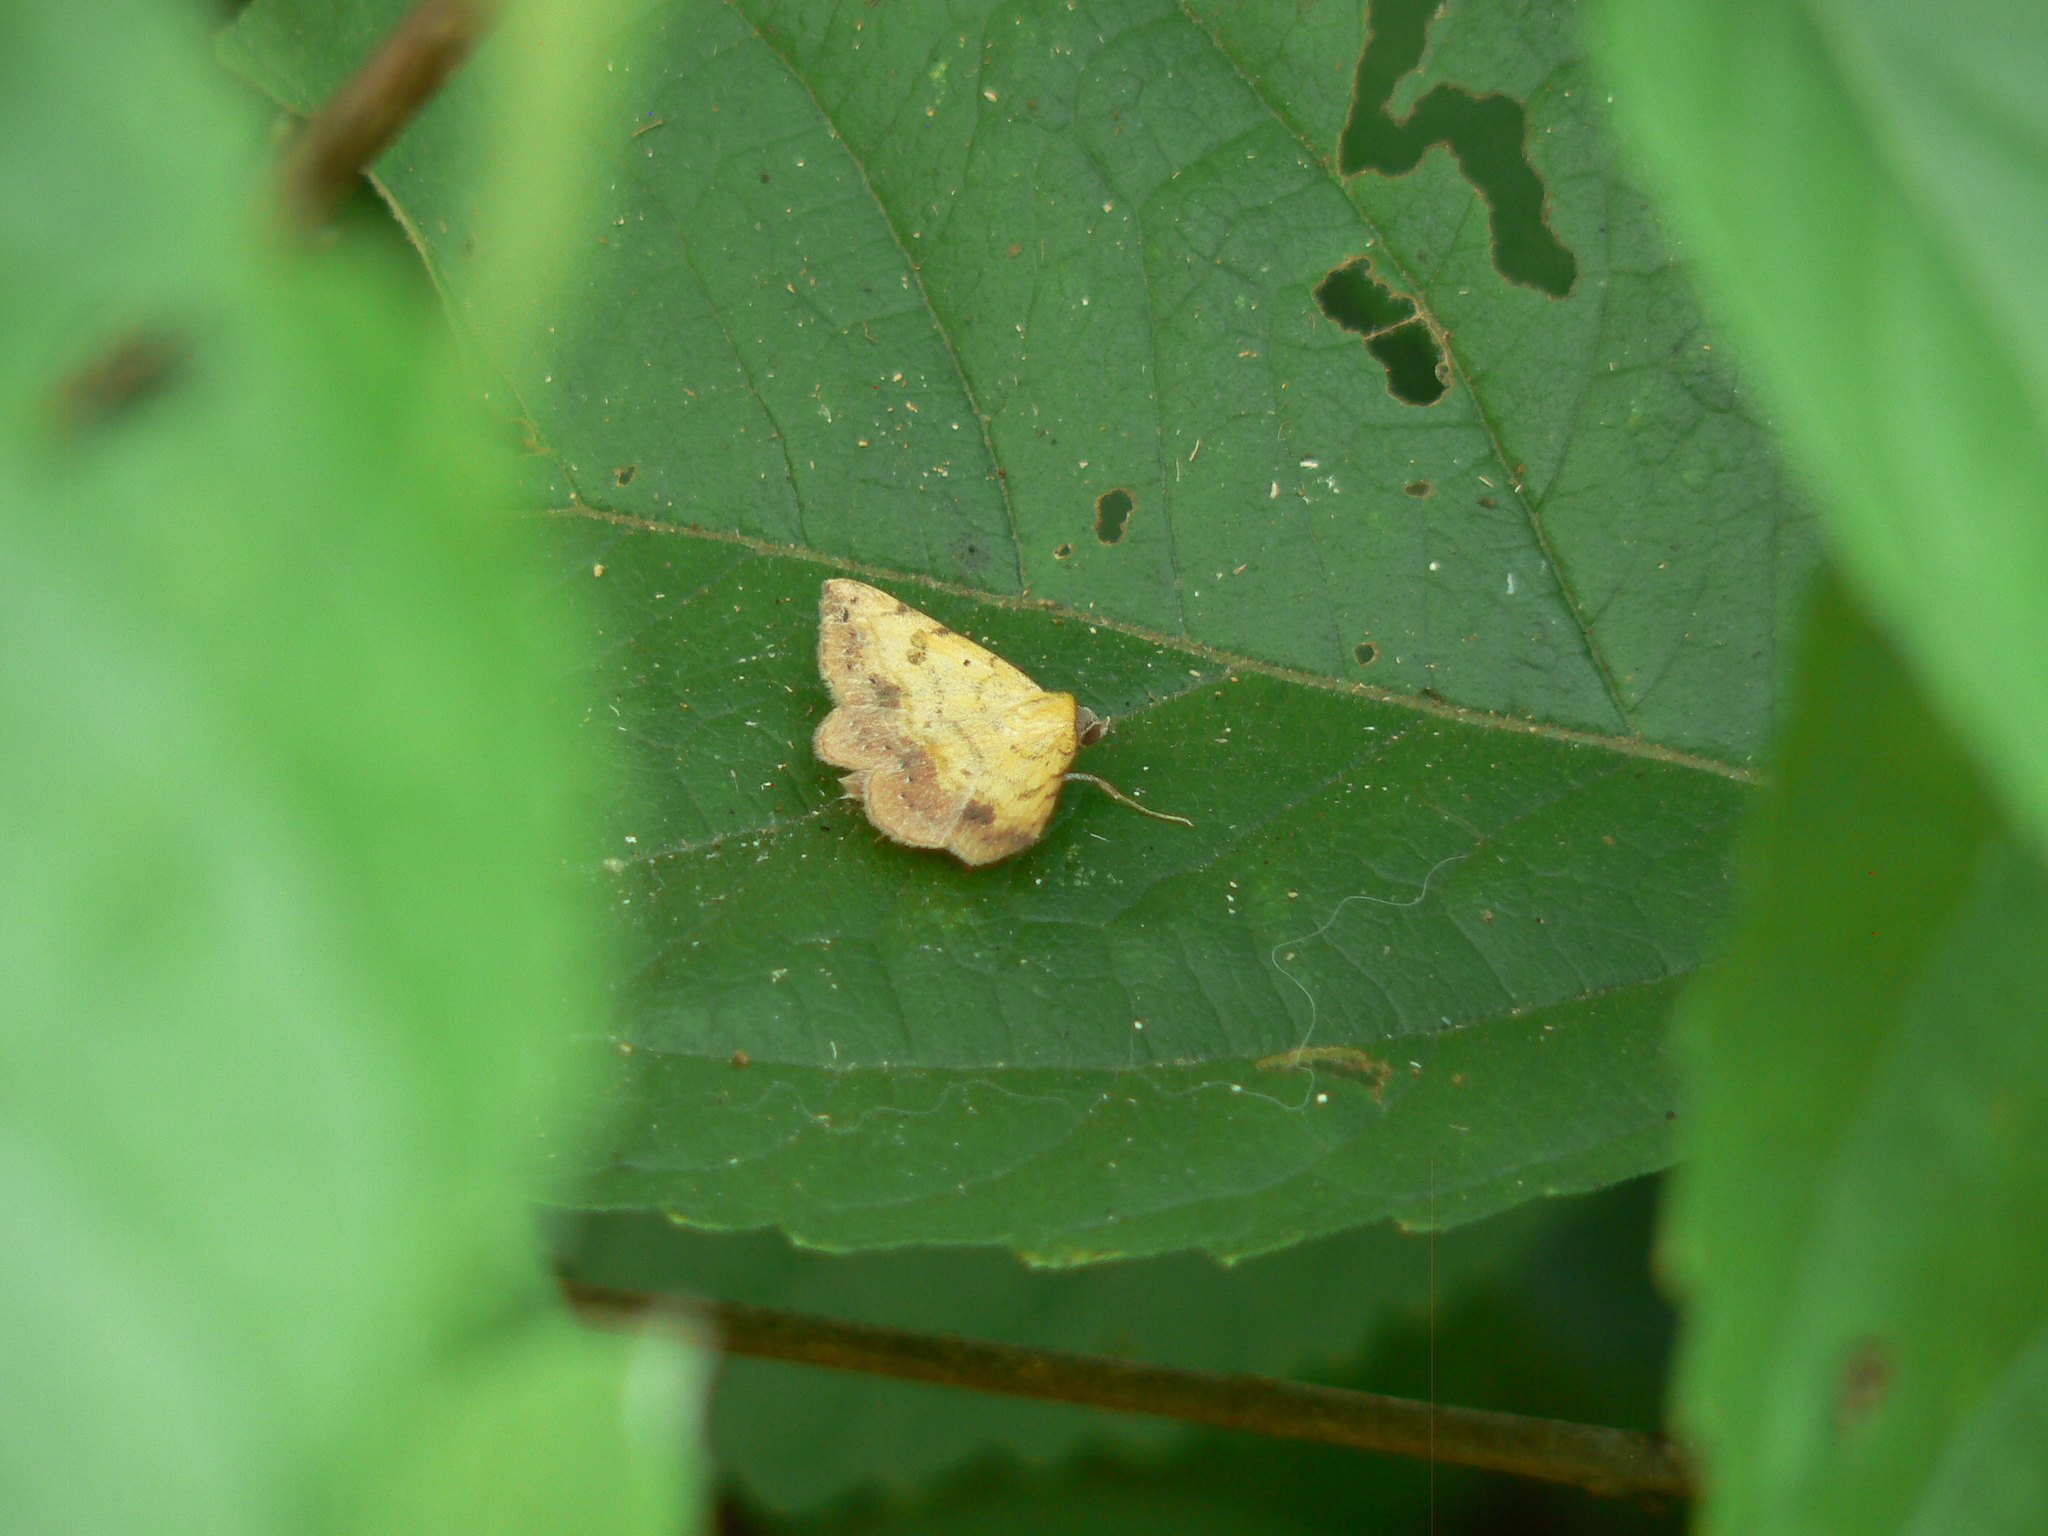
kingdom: Animalia
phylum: Arthropoda
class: Insecta
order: Lepidoptera
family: Erebidae
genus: Hemeroplanis
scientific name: Hemeroplanis scopulepes
